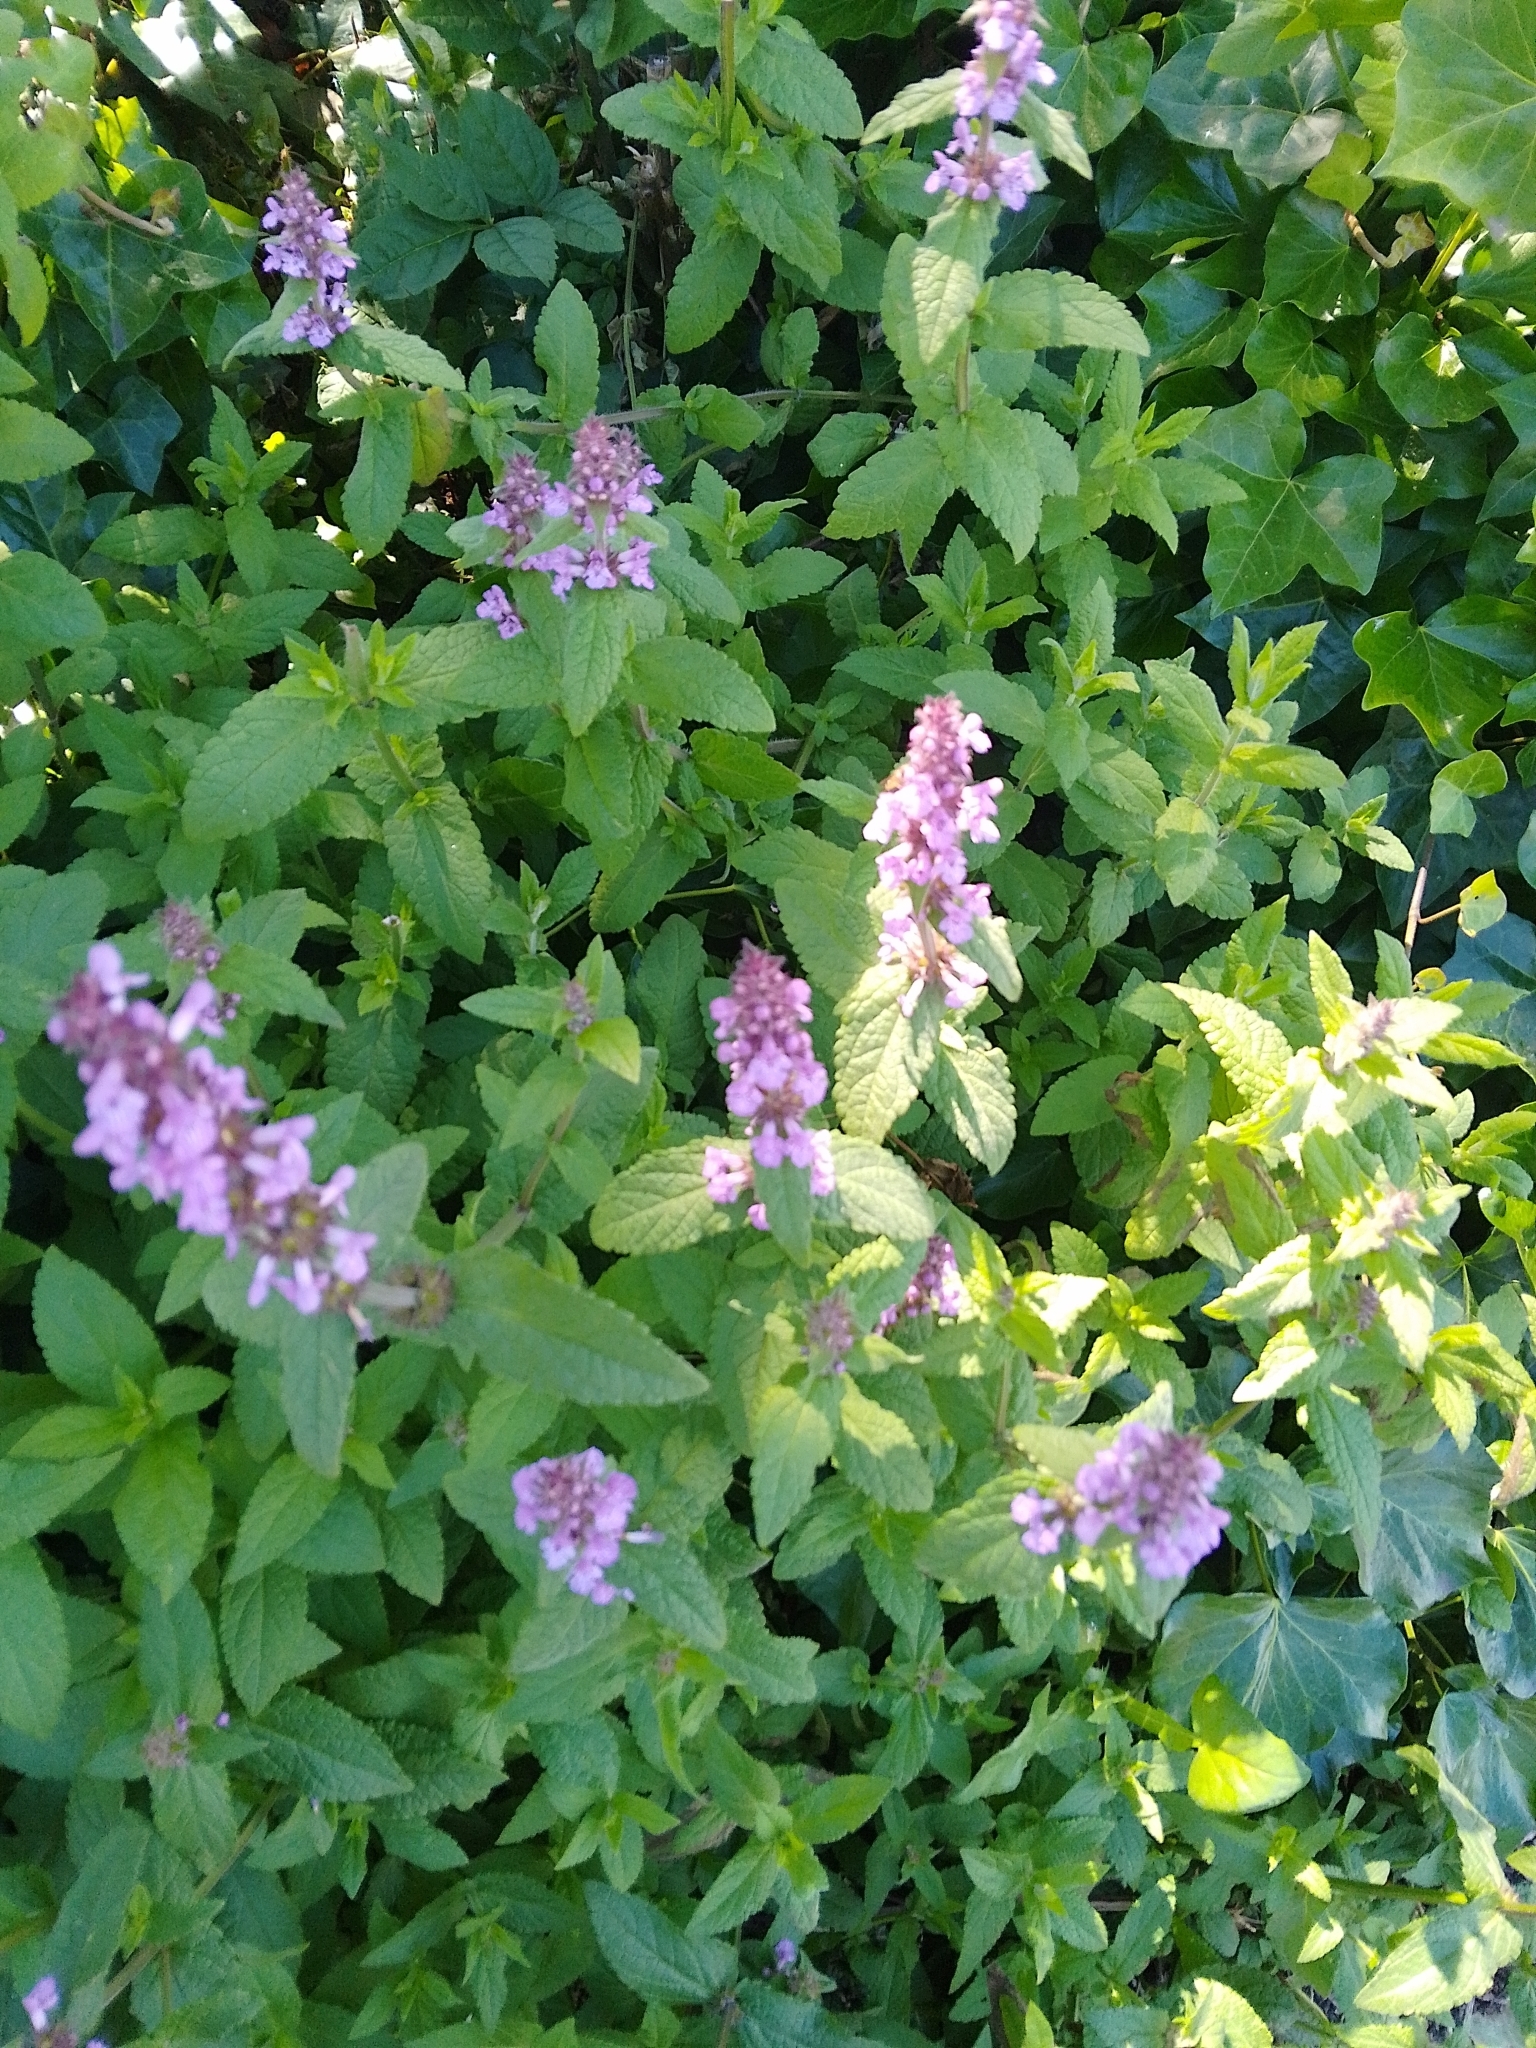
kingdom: Plantae
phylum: Tracheophyta
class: Magnoliopsida
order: Lamiales
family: Lamiaceae
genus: Stachys
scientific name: Stachys palustris
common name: Marsh woundwort
